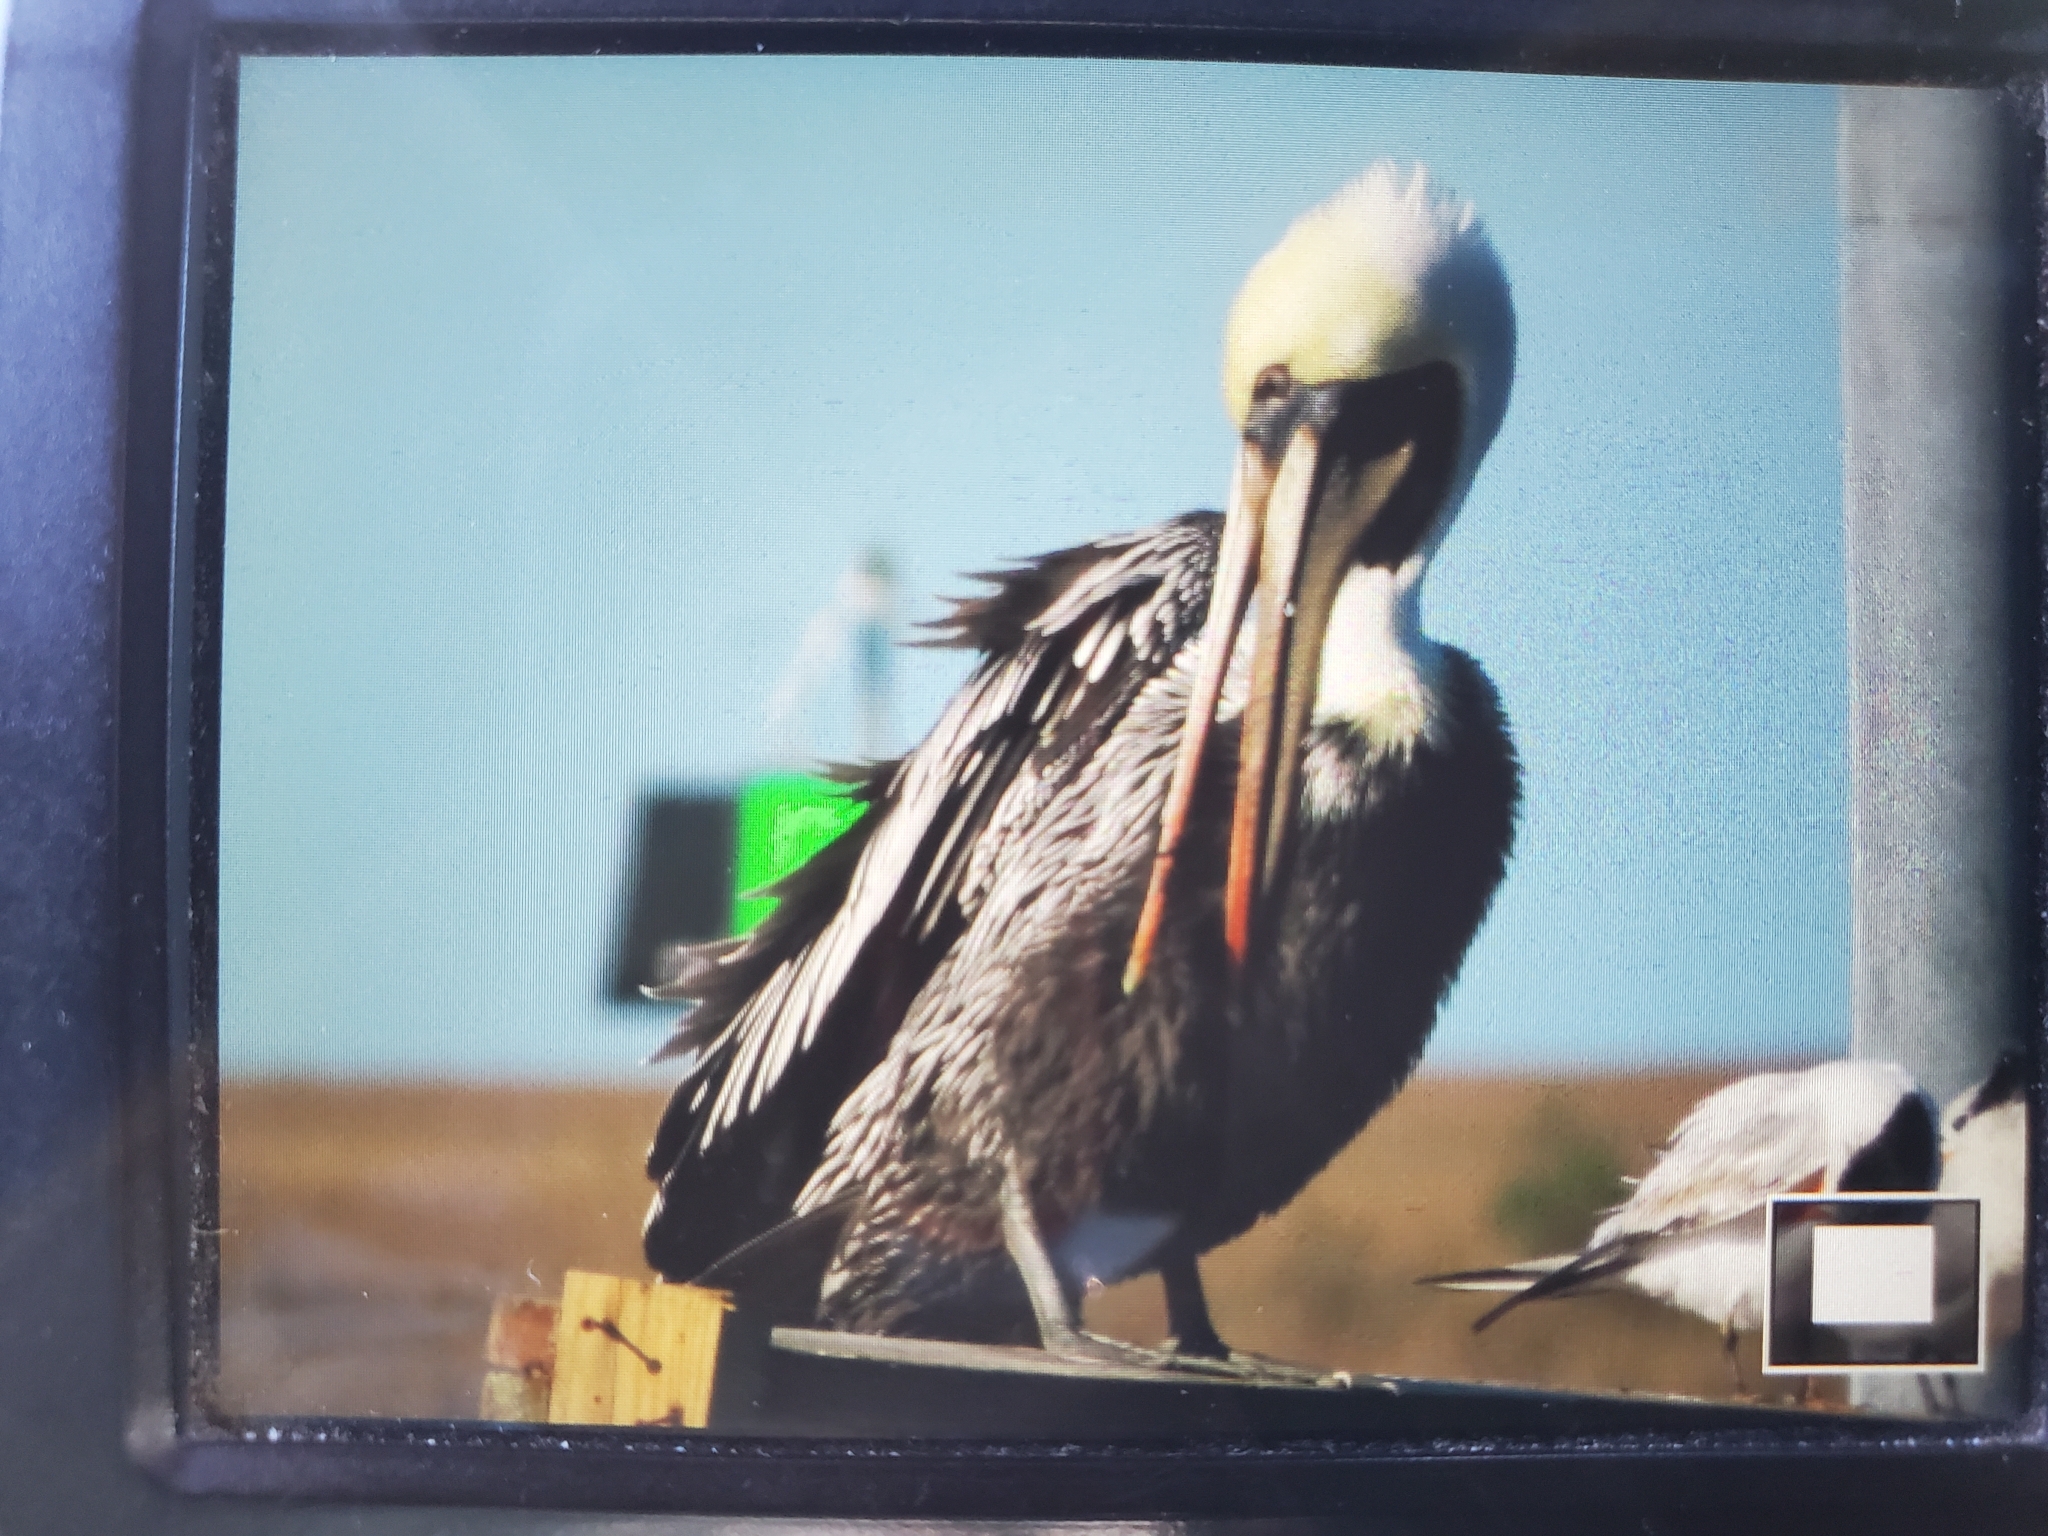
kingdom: Animalia
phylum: Chordata
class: Aves
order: Pelecaniformes
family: Pelecanidae
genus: Pelecanus
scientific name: Pelecanus occidentalis
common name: Brown pelican
